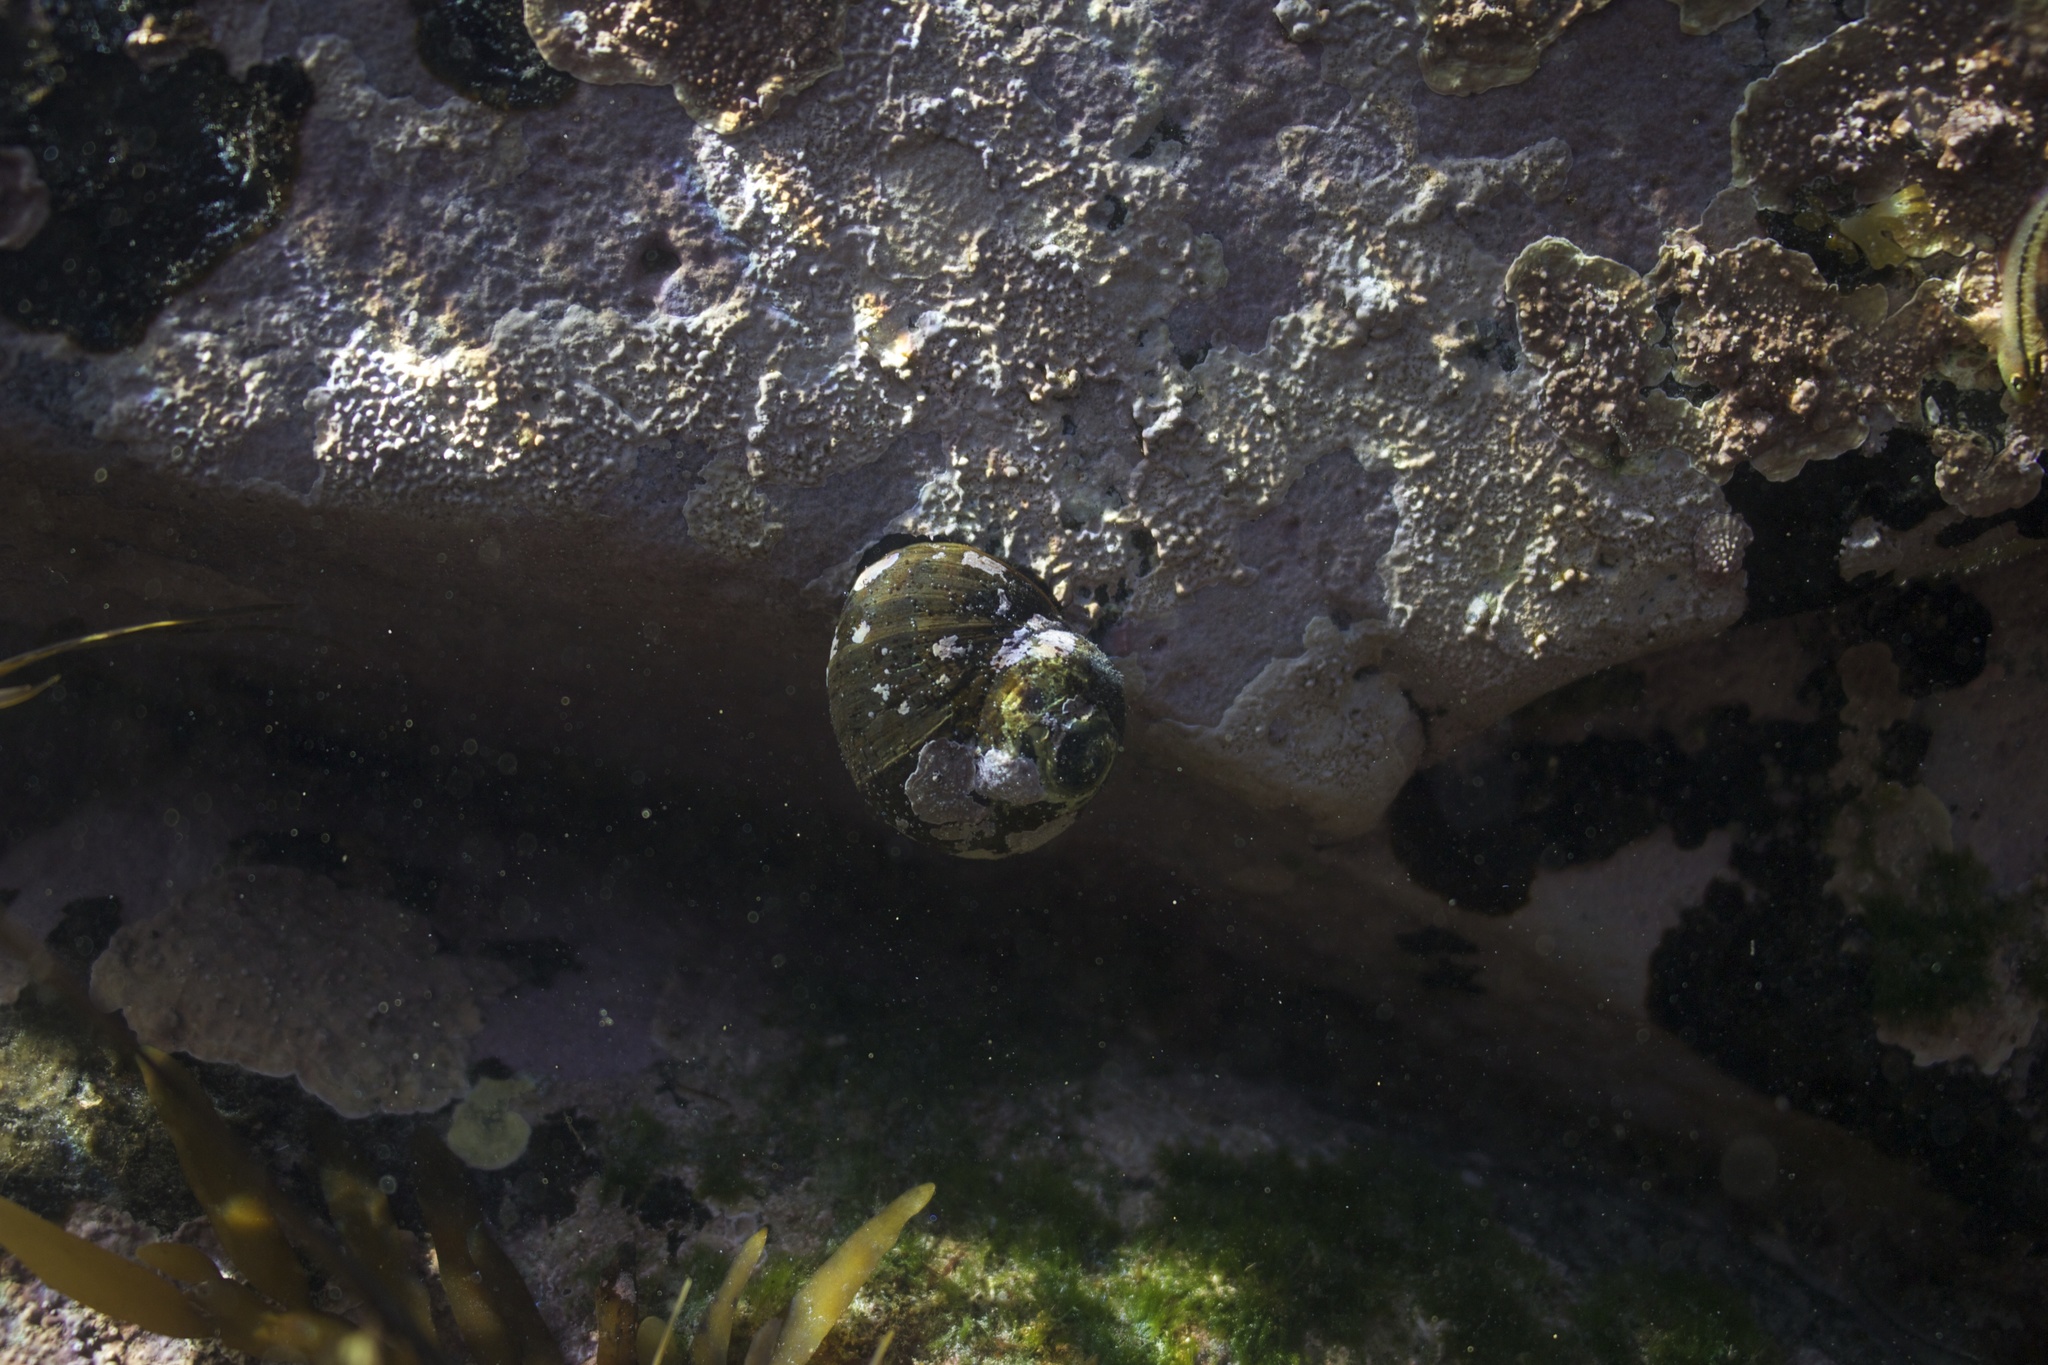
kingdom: Animalia
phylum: Mollusca
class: Gastropoda
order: Trochida
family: Turbinidae
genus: Lunella
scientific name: Lunella smaragda
